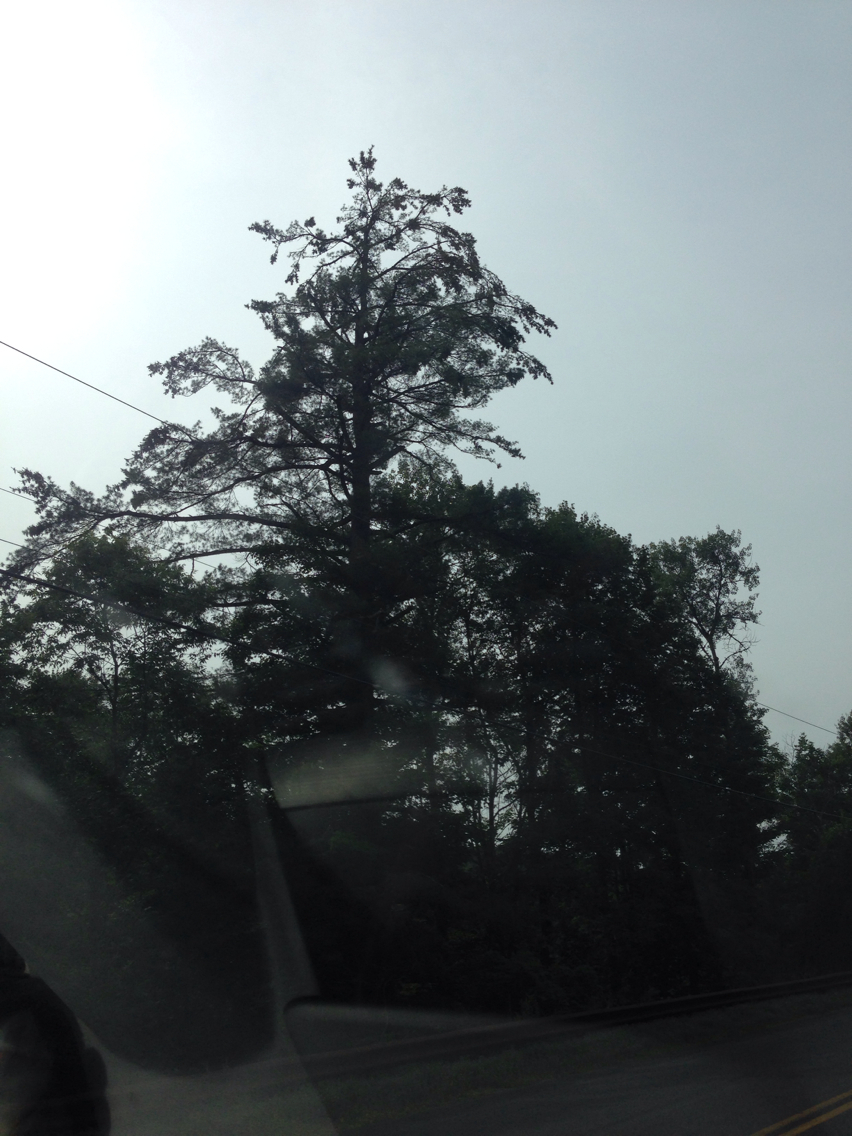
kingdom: Plantae
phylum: Tracheophyta
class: Pinopsida
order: Pinales
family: Pinaceae
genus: Pinus
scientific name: Pinus strobus
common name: Weymouth pine
